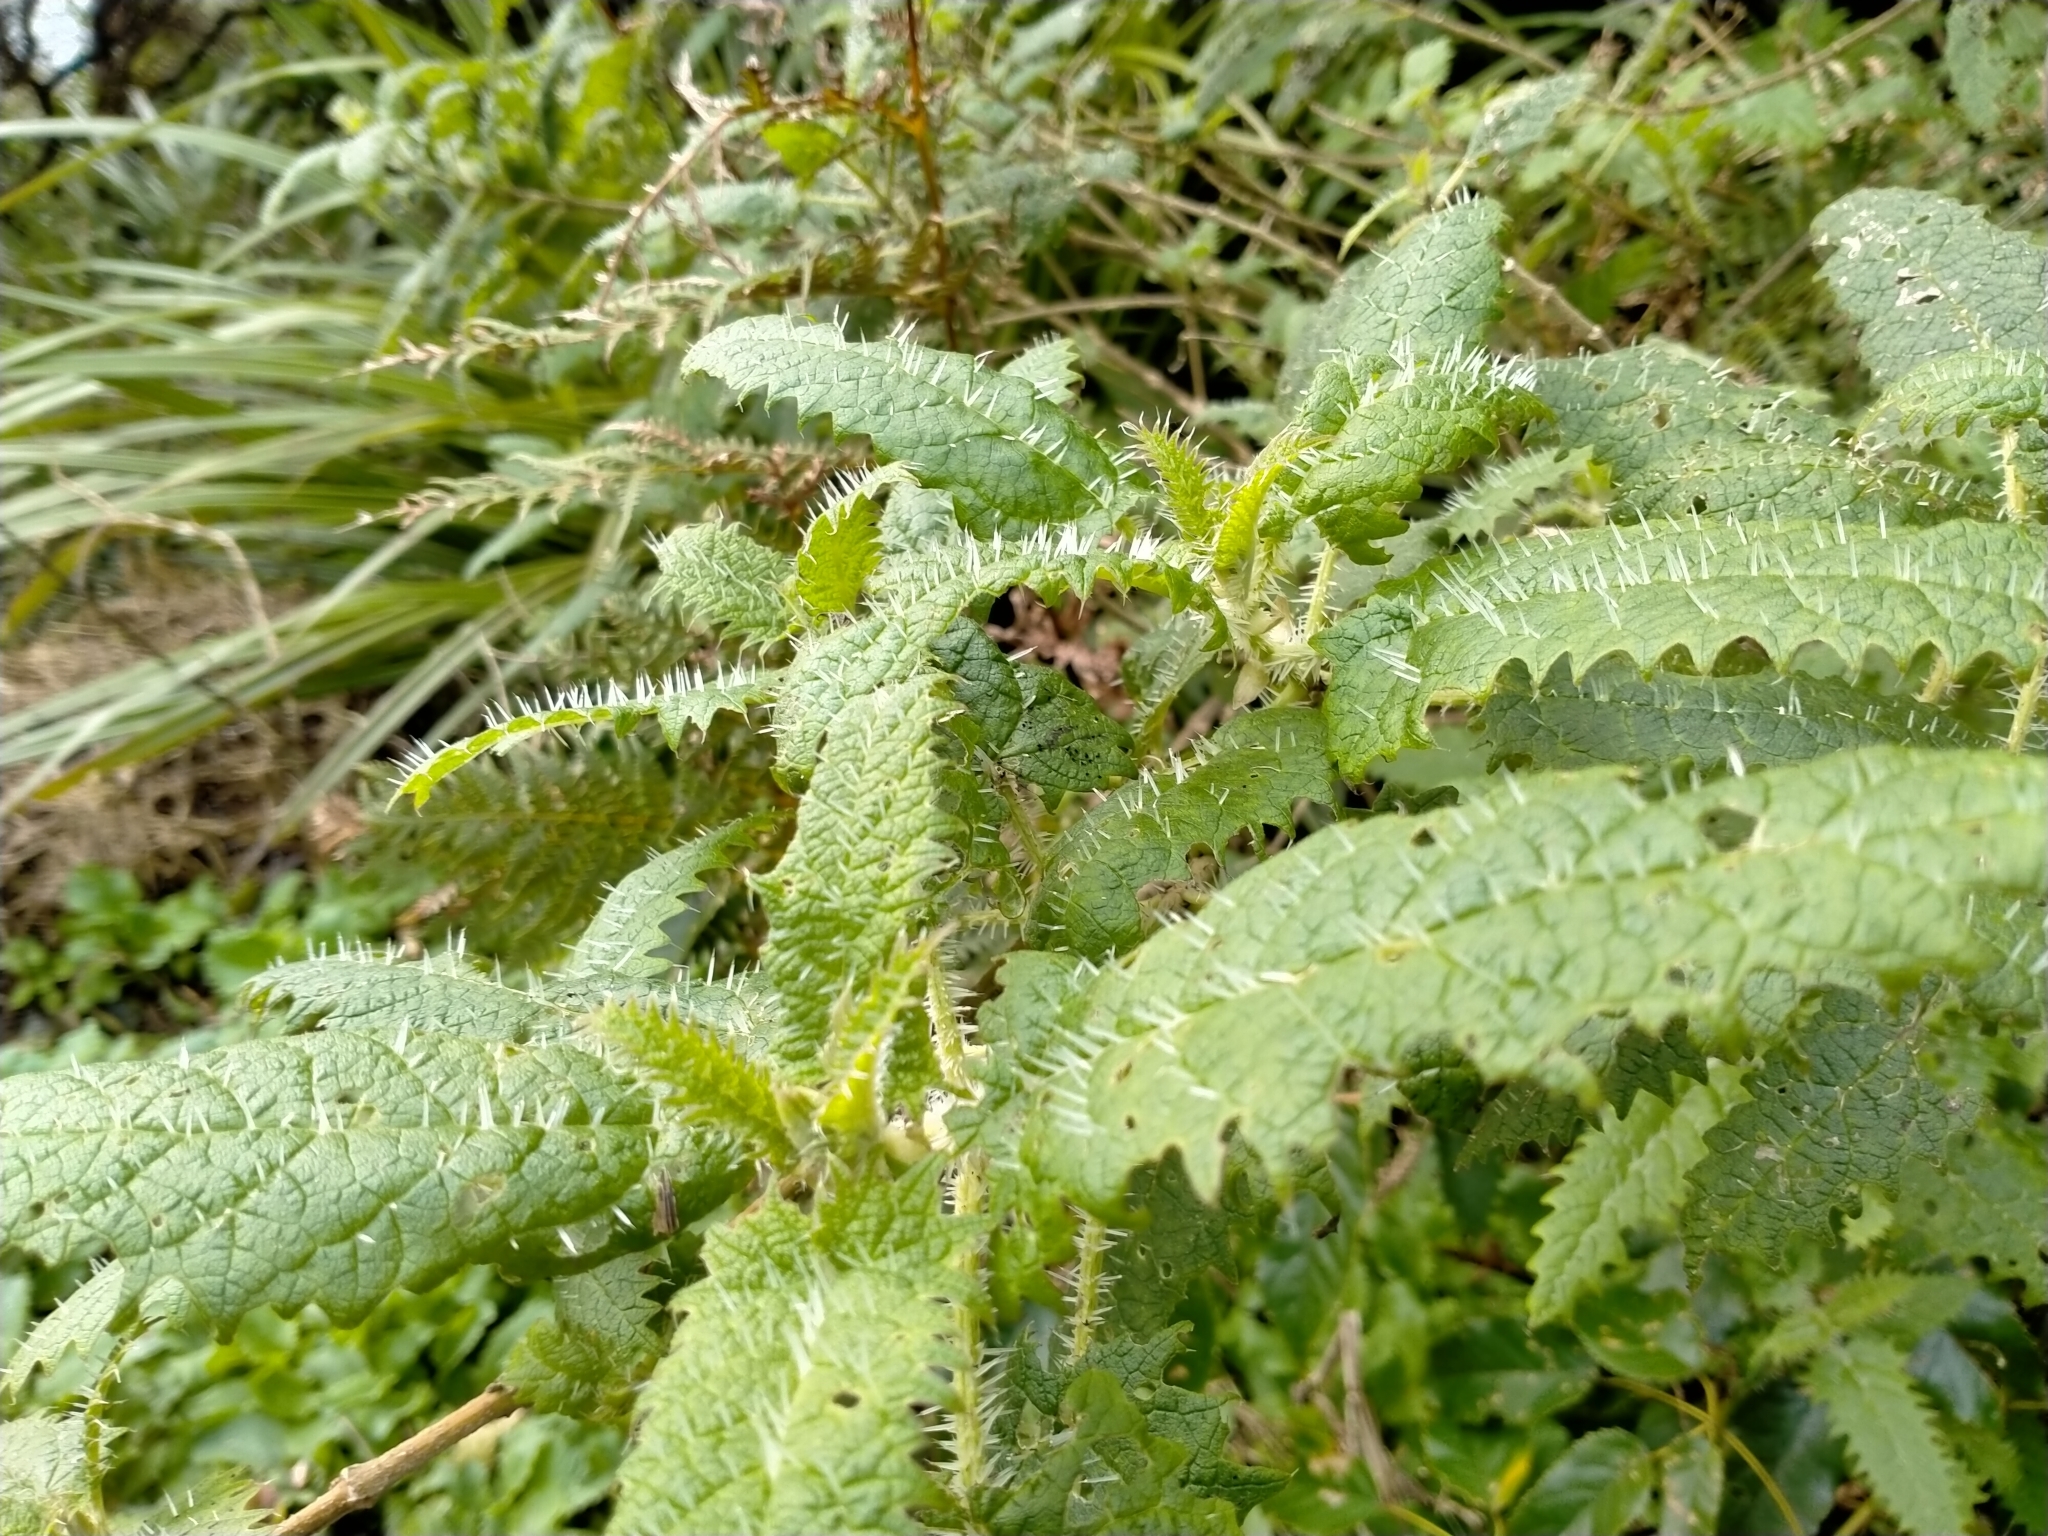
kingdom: Plantae
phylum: Tracheophyta
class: Magnoliopsida
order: Rosales
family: Urticaceae
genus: Urtica
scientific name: Urtica ferox
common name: Tree nettle
